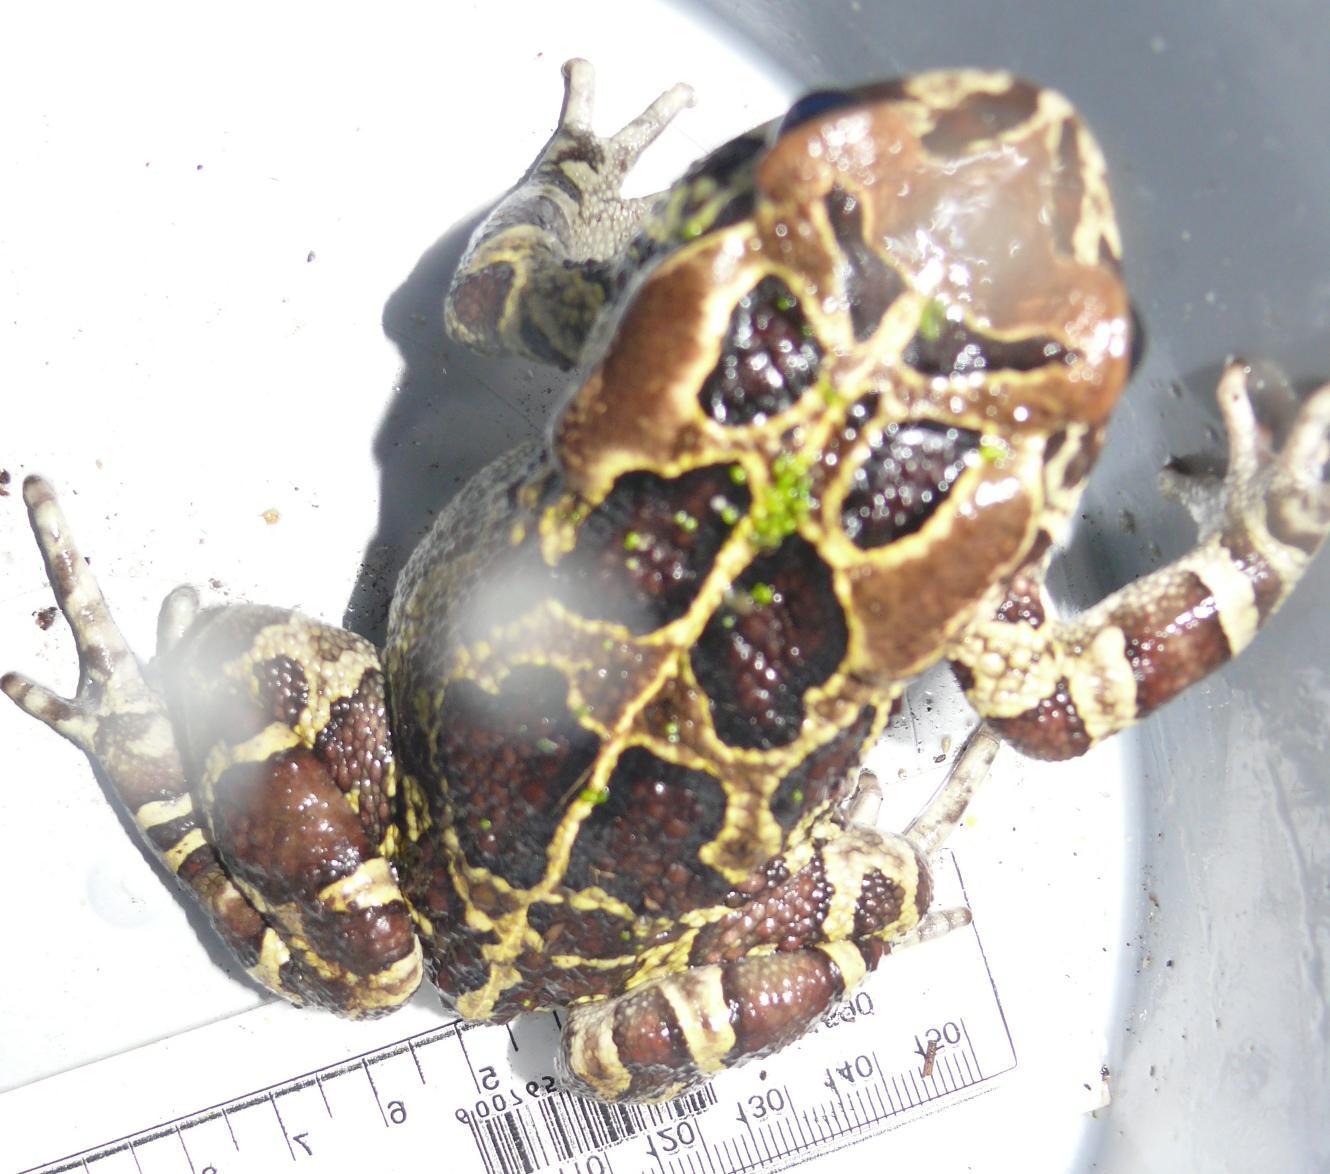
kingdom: Animalia
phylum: Chordata
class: Amphibia
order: Anura
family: Bufonidae
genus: Sclerophrys
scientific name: Sclerophrys pantherina
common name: Panther toad
